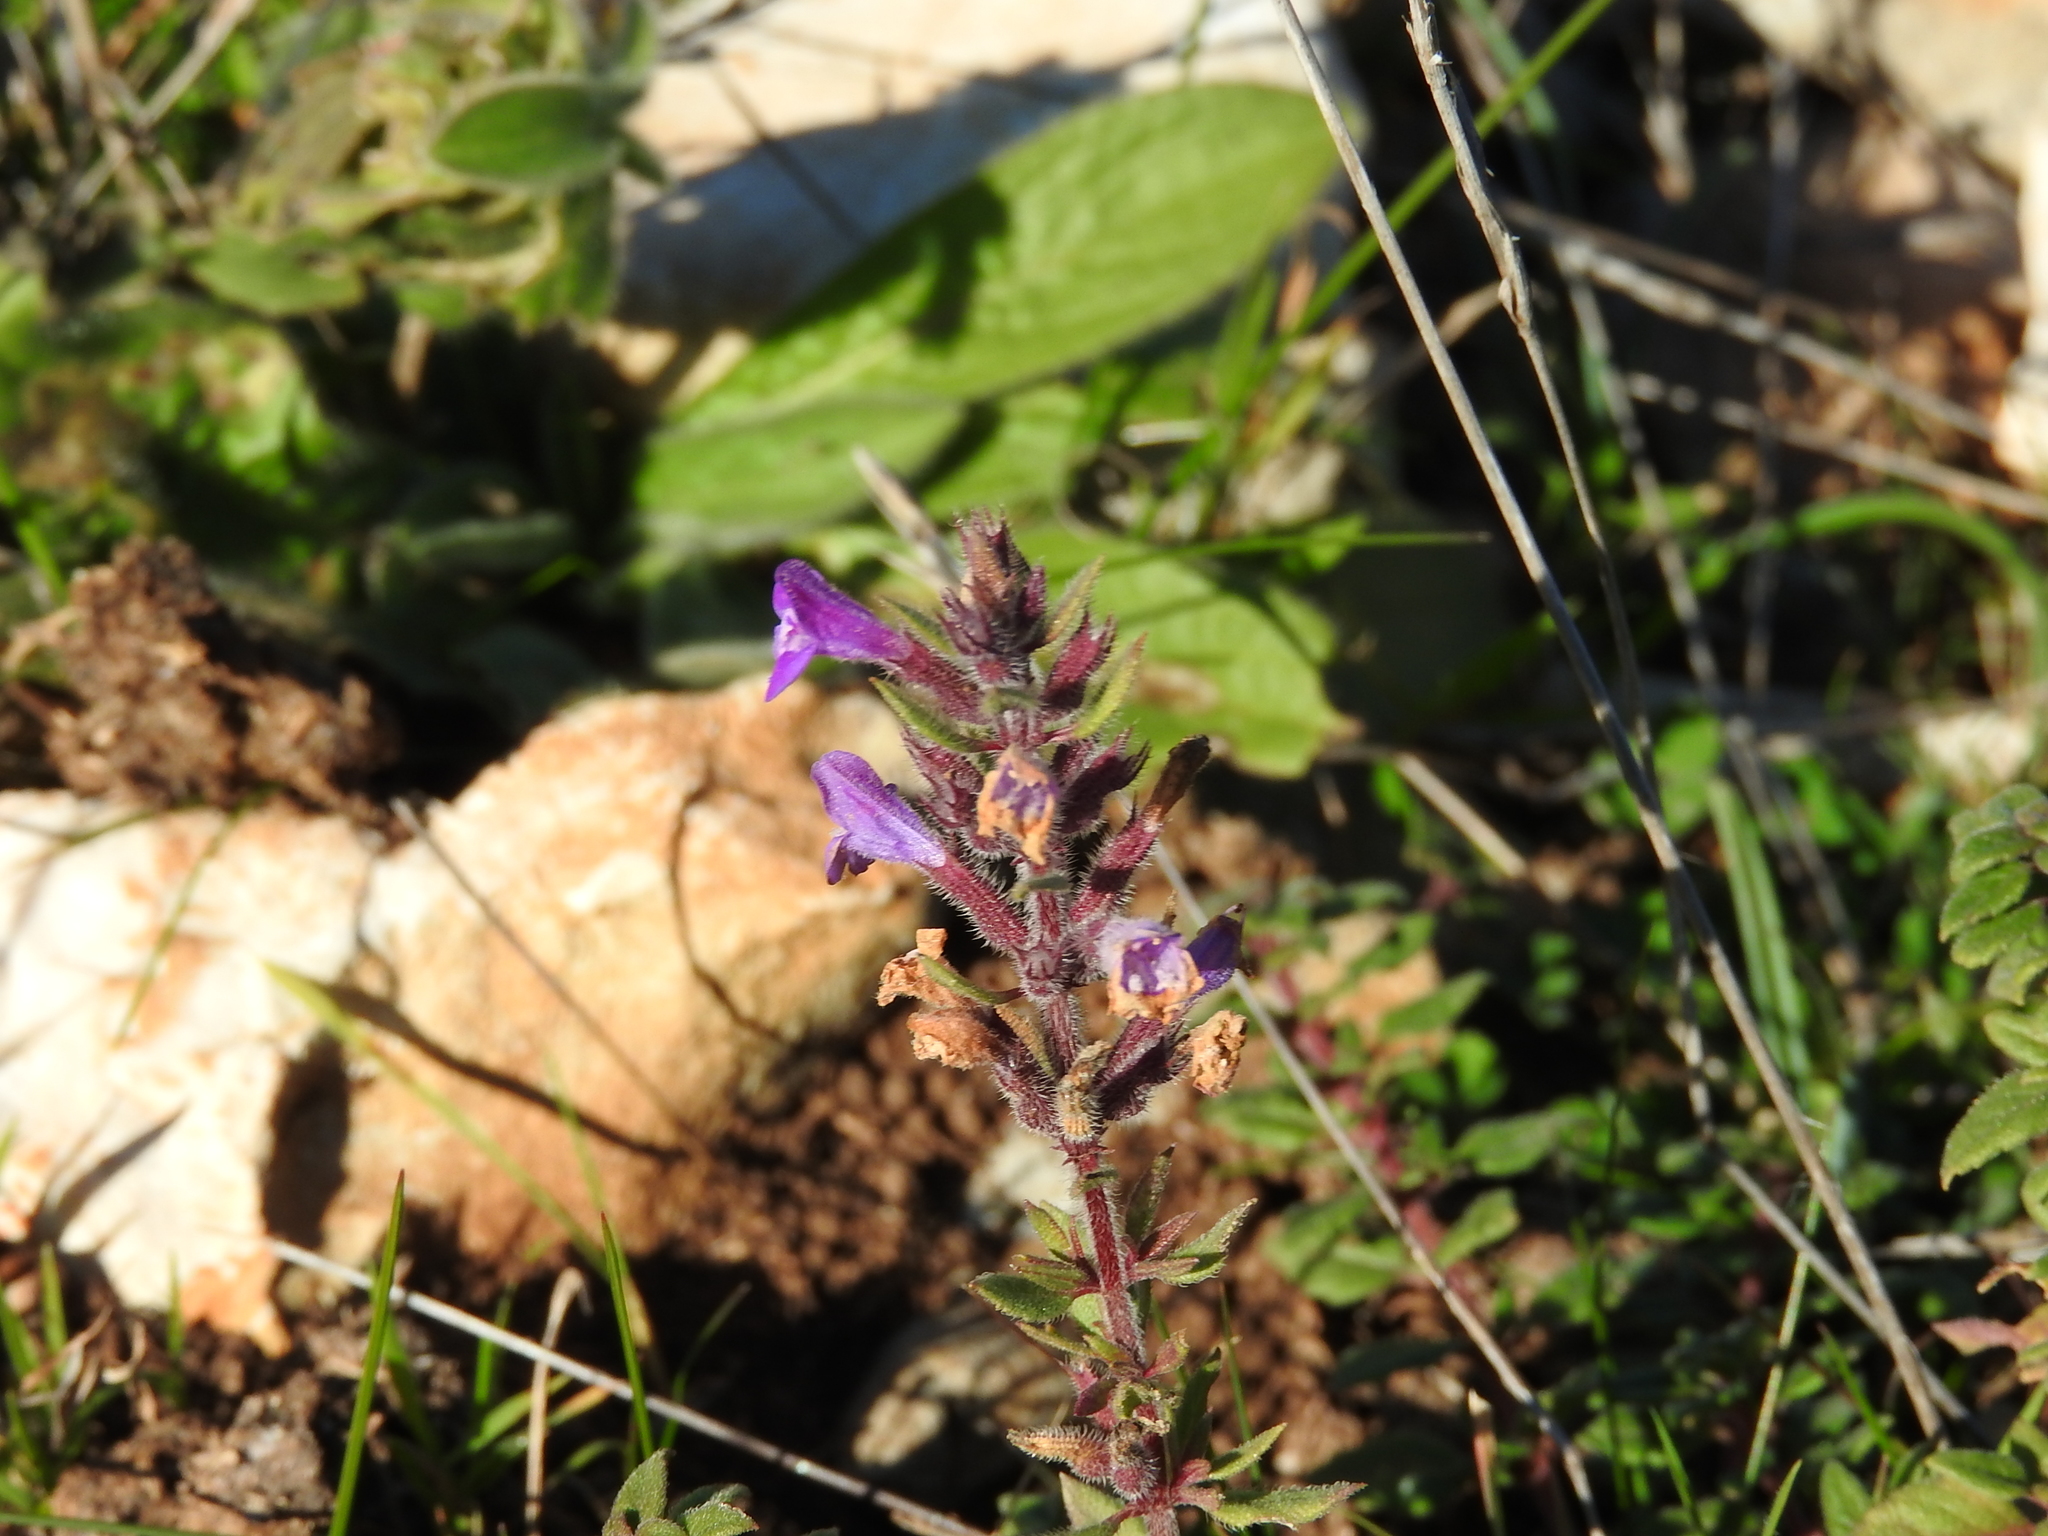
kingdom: Plantae
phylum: Tracheophyta
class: Magnoliopsida
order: Lamiales
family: Lamiaceae
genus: Clinopodium
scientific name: Clinopodium suaveolens
